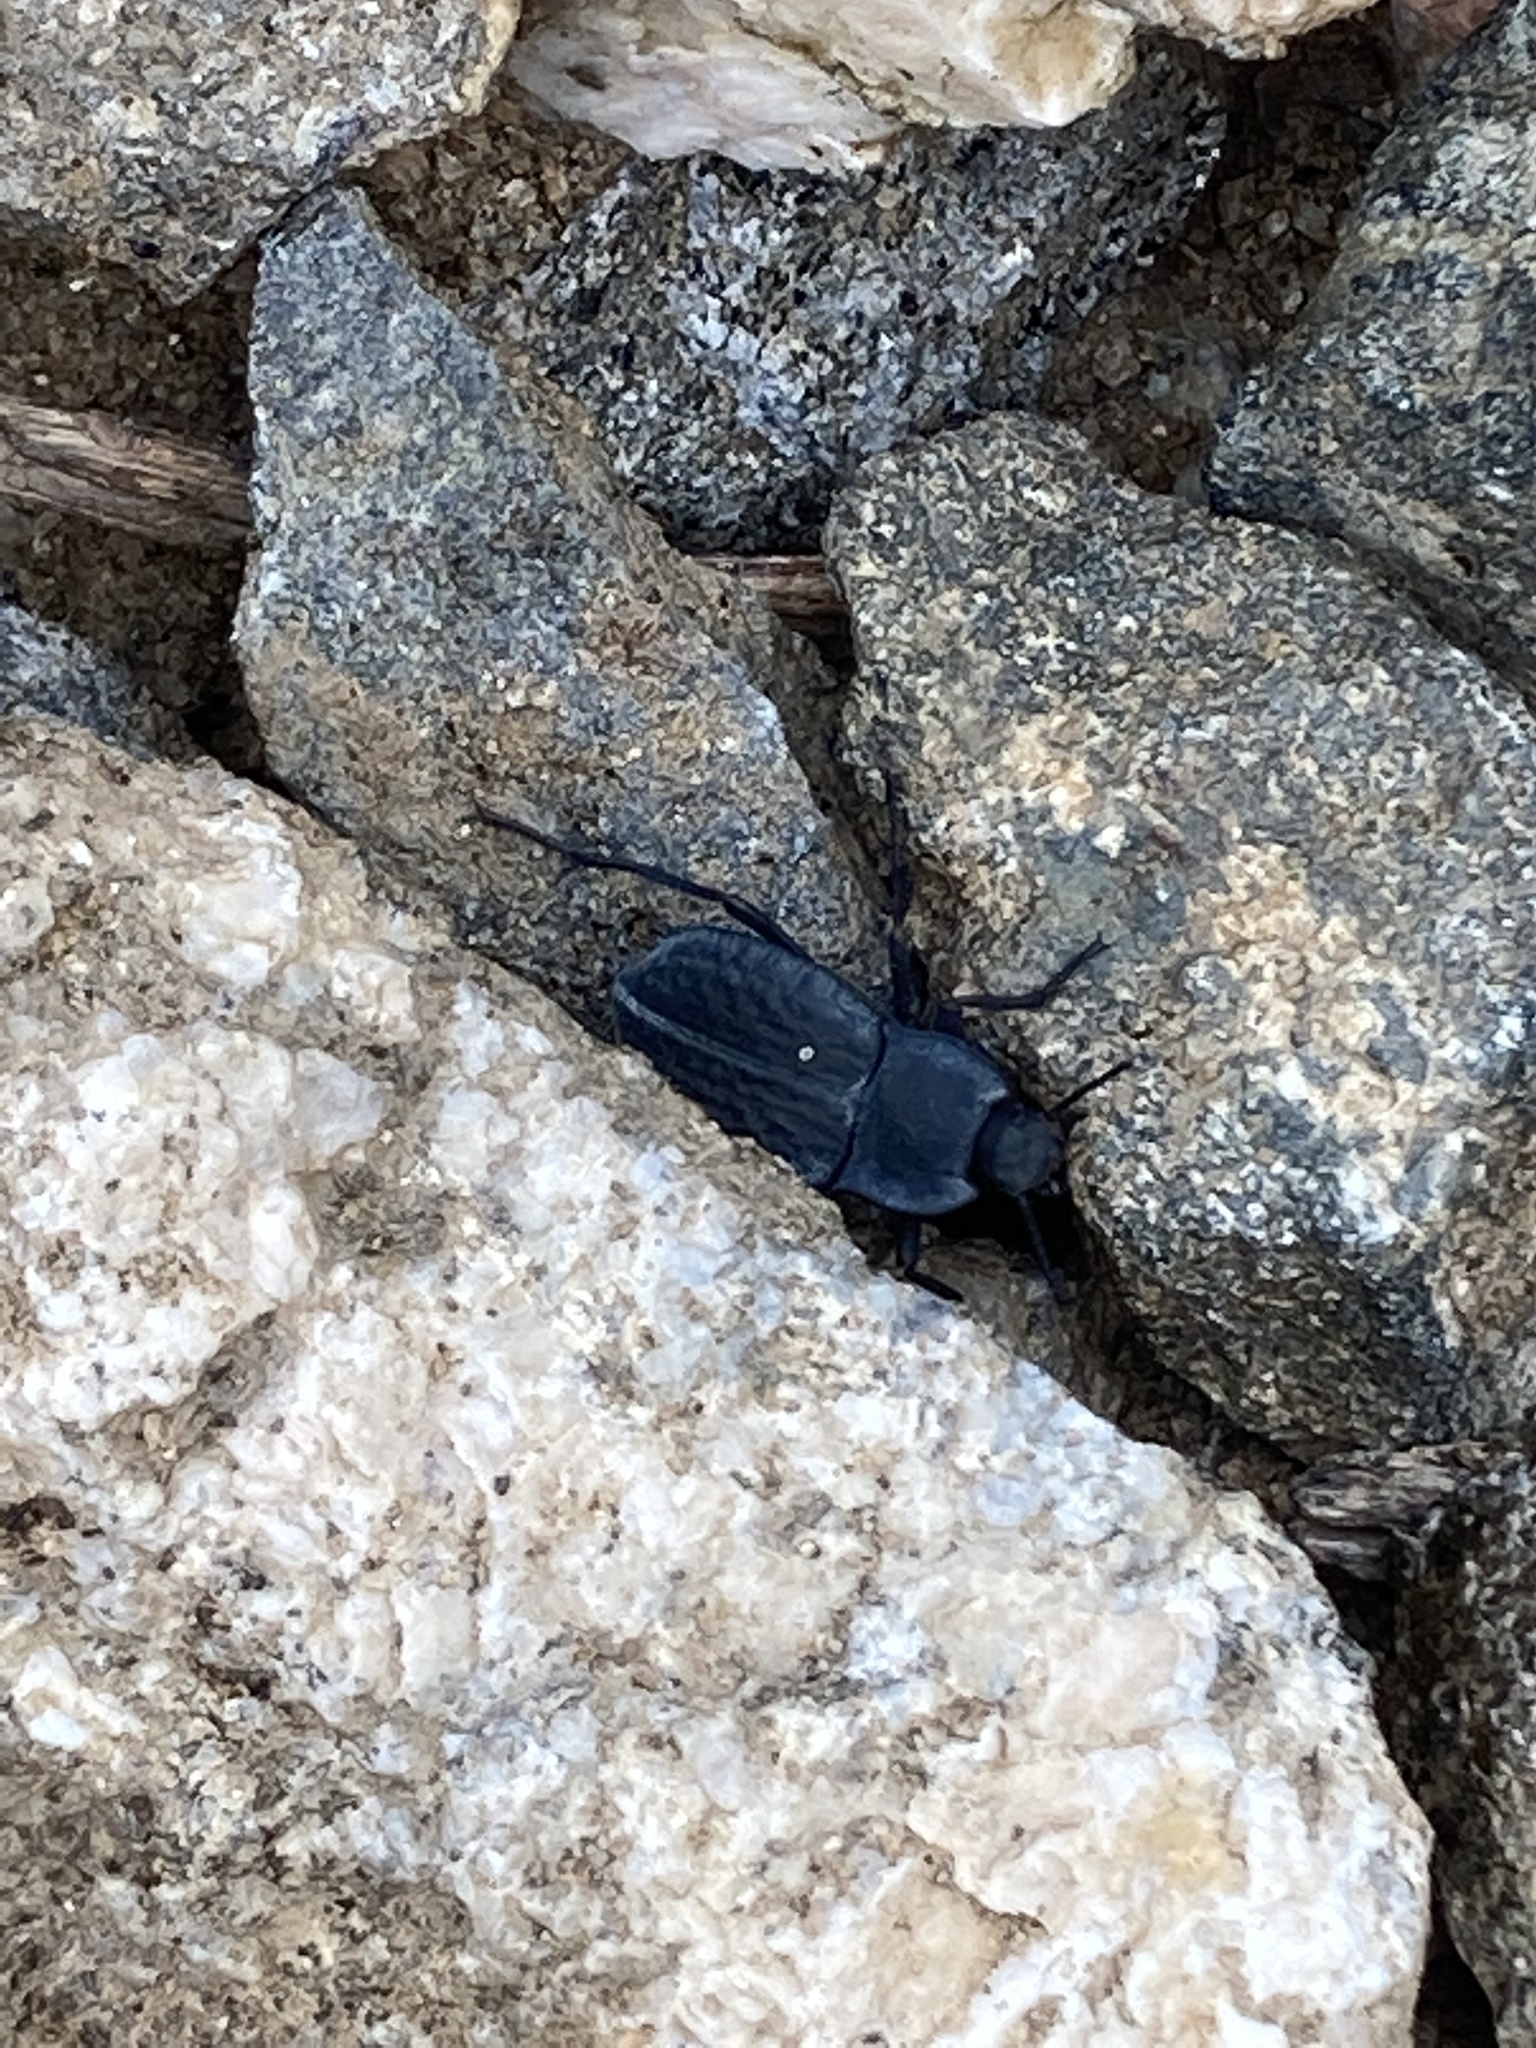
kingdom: Animalia
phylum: Arthropoda
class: Insecta
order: Coleoptera
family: Tenebrionidae
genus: Stenomorpha
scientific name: Stenomorpha opaca
